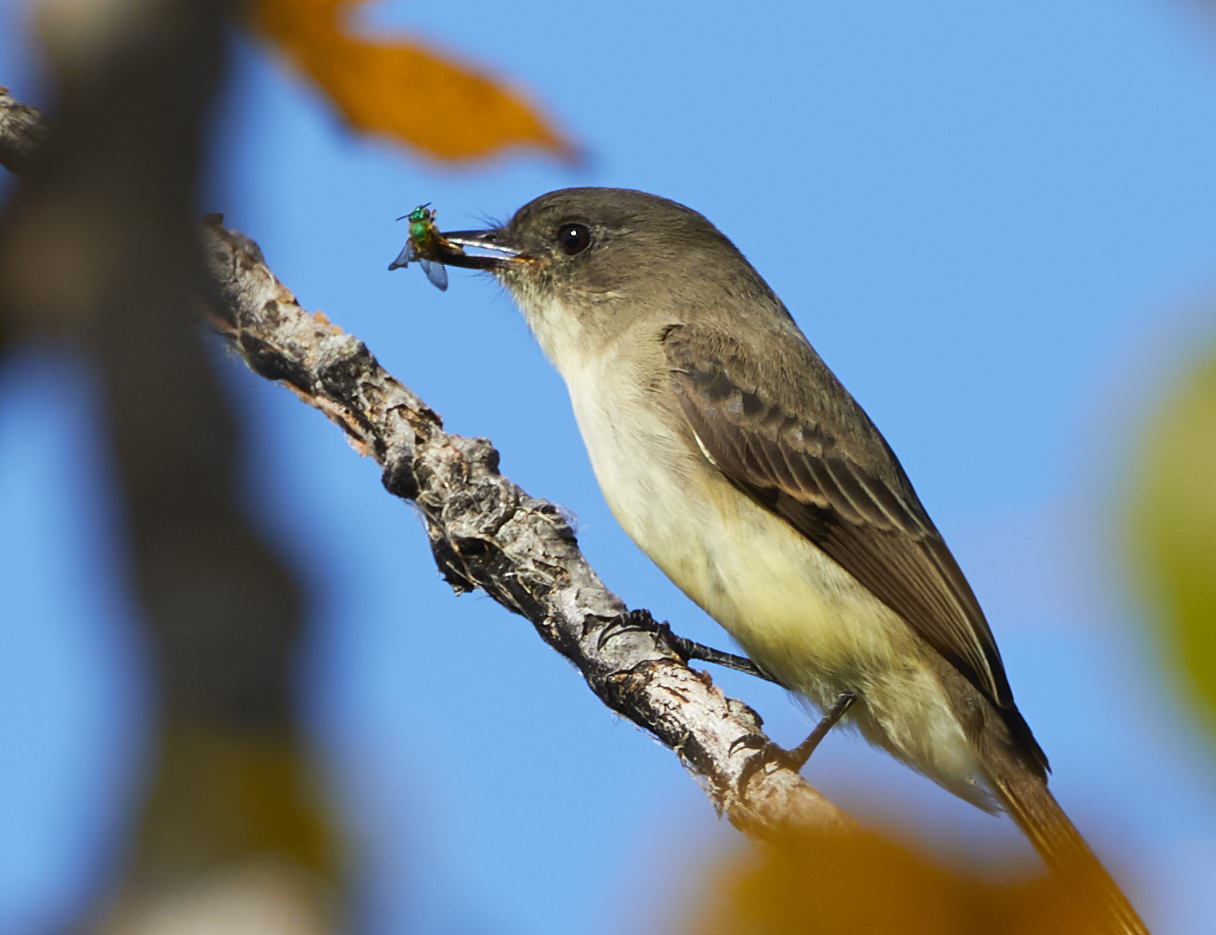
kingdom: Animalia
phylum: Chordata
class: Aves
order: Passeriformes
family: Tyrannidae
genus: Sayornis
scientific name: Sayornis phoebe
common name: Eastern phoebe
